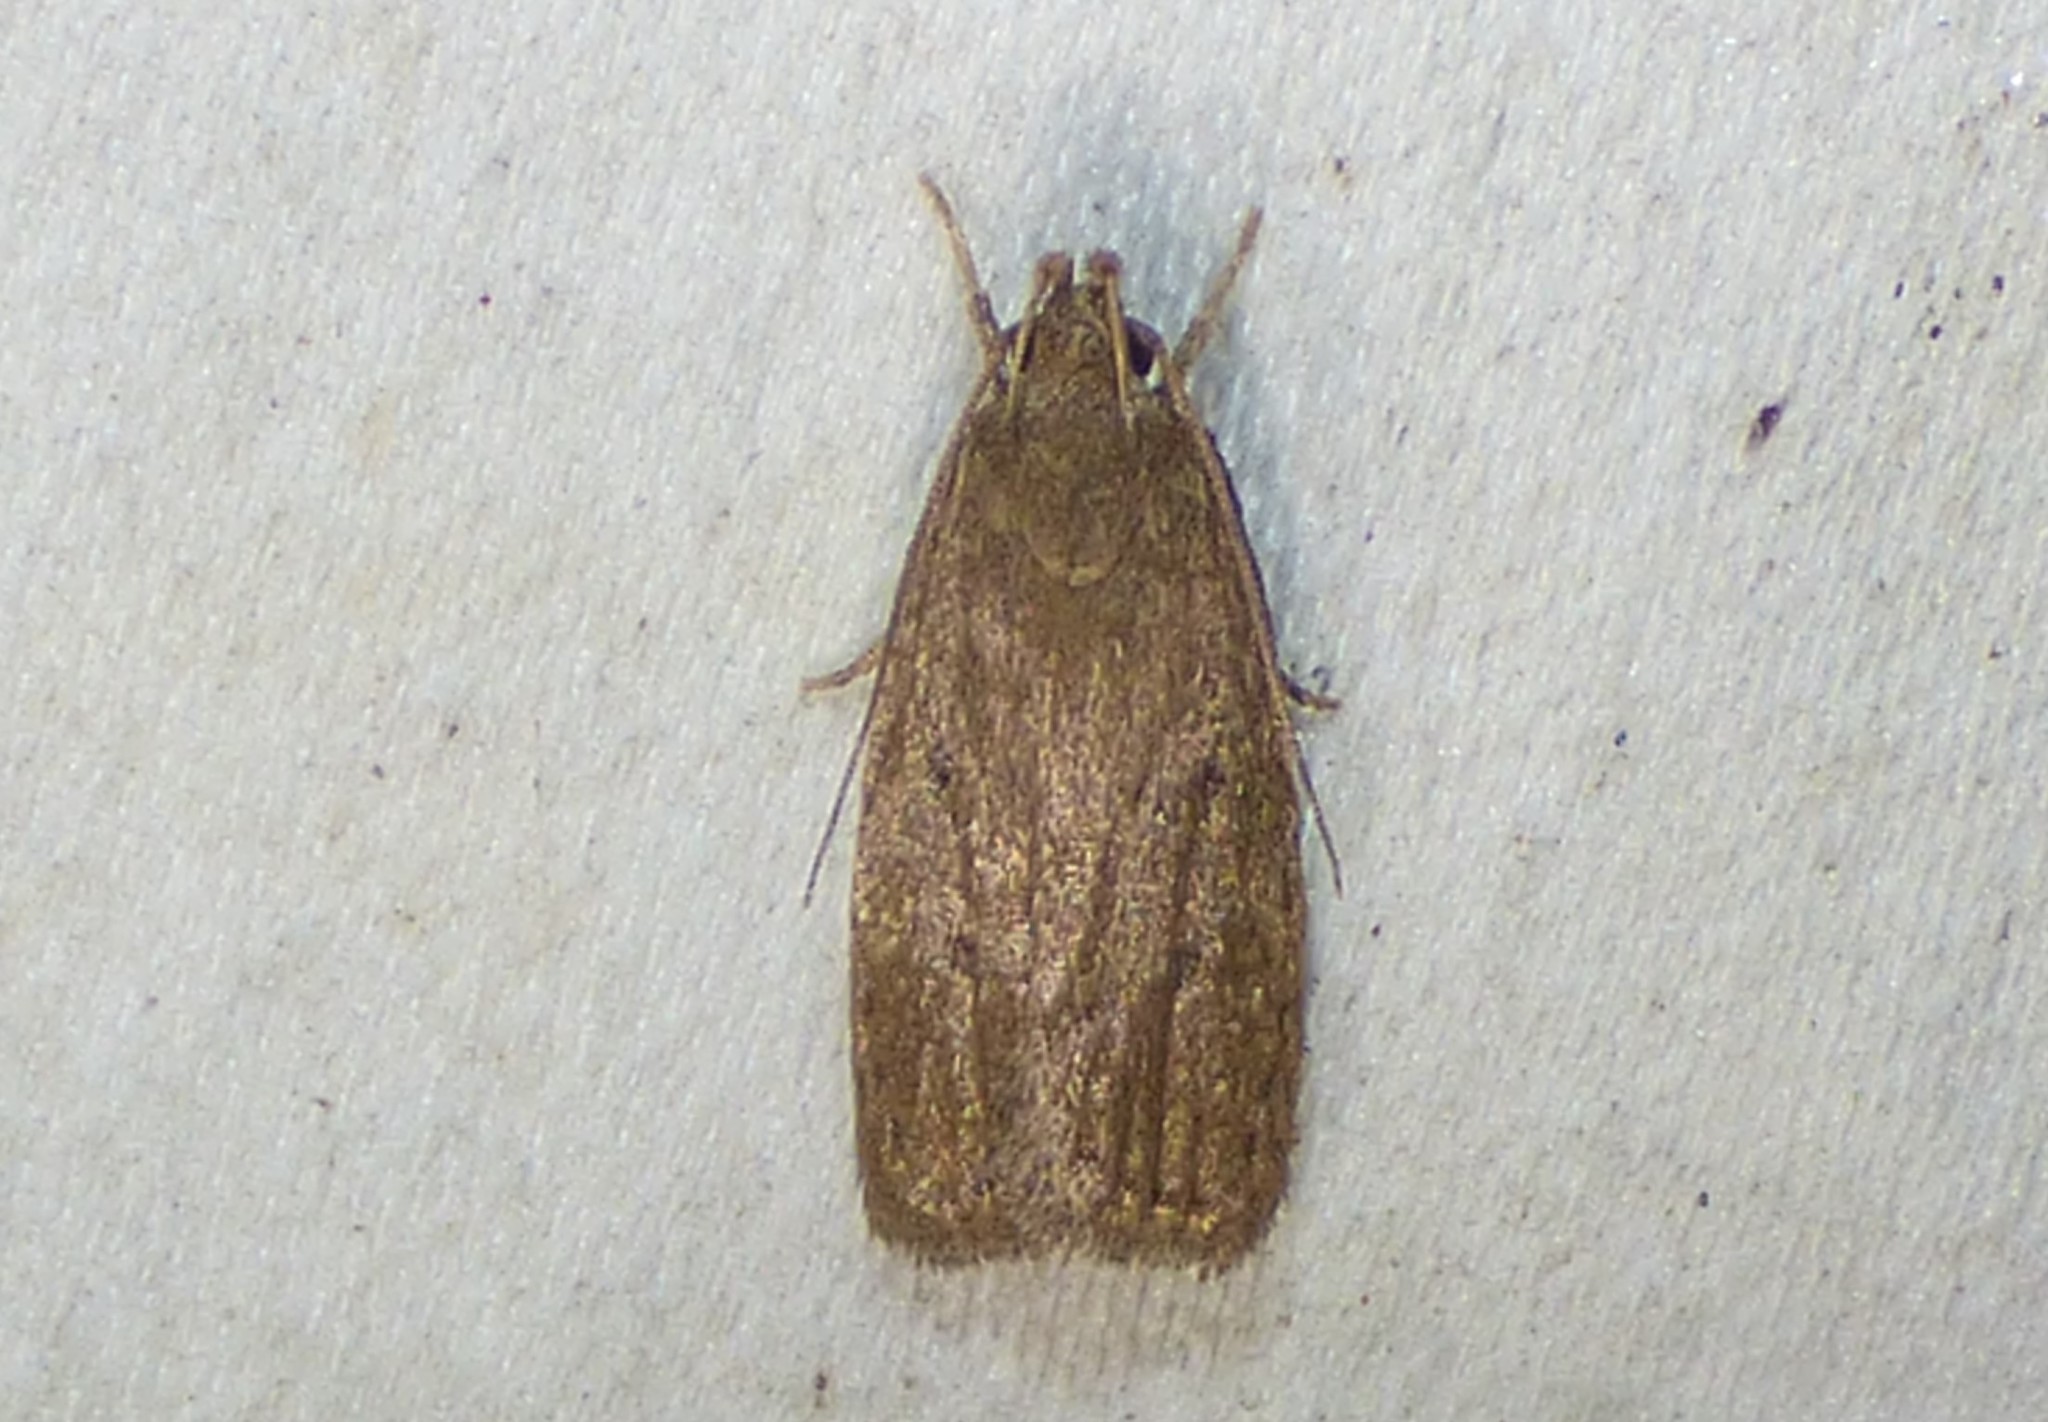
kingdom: Animalia
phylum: Arthropoda
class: Insecta
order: Lepidoptera
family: Autostichidae
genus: Autosticha
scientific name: Autosticha kyotensis
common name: Kyoto moth
